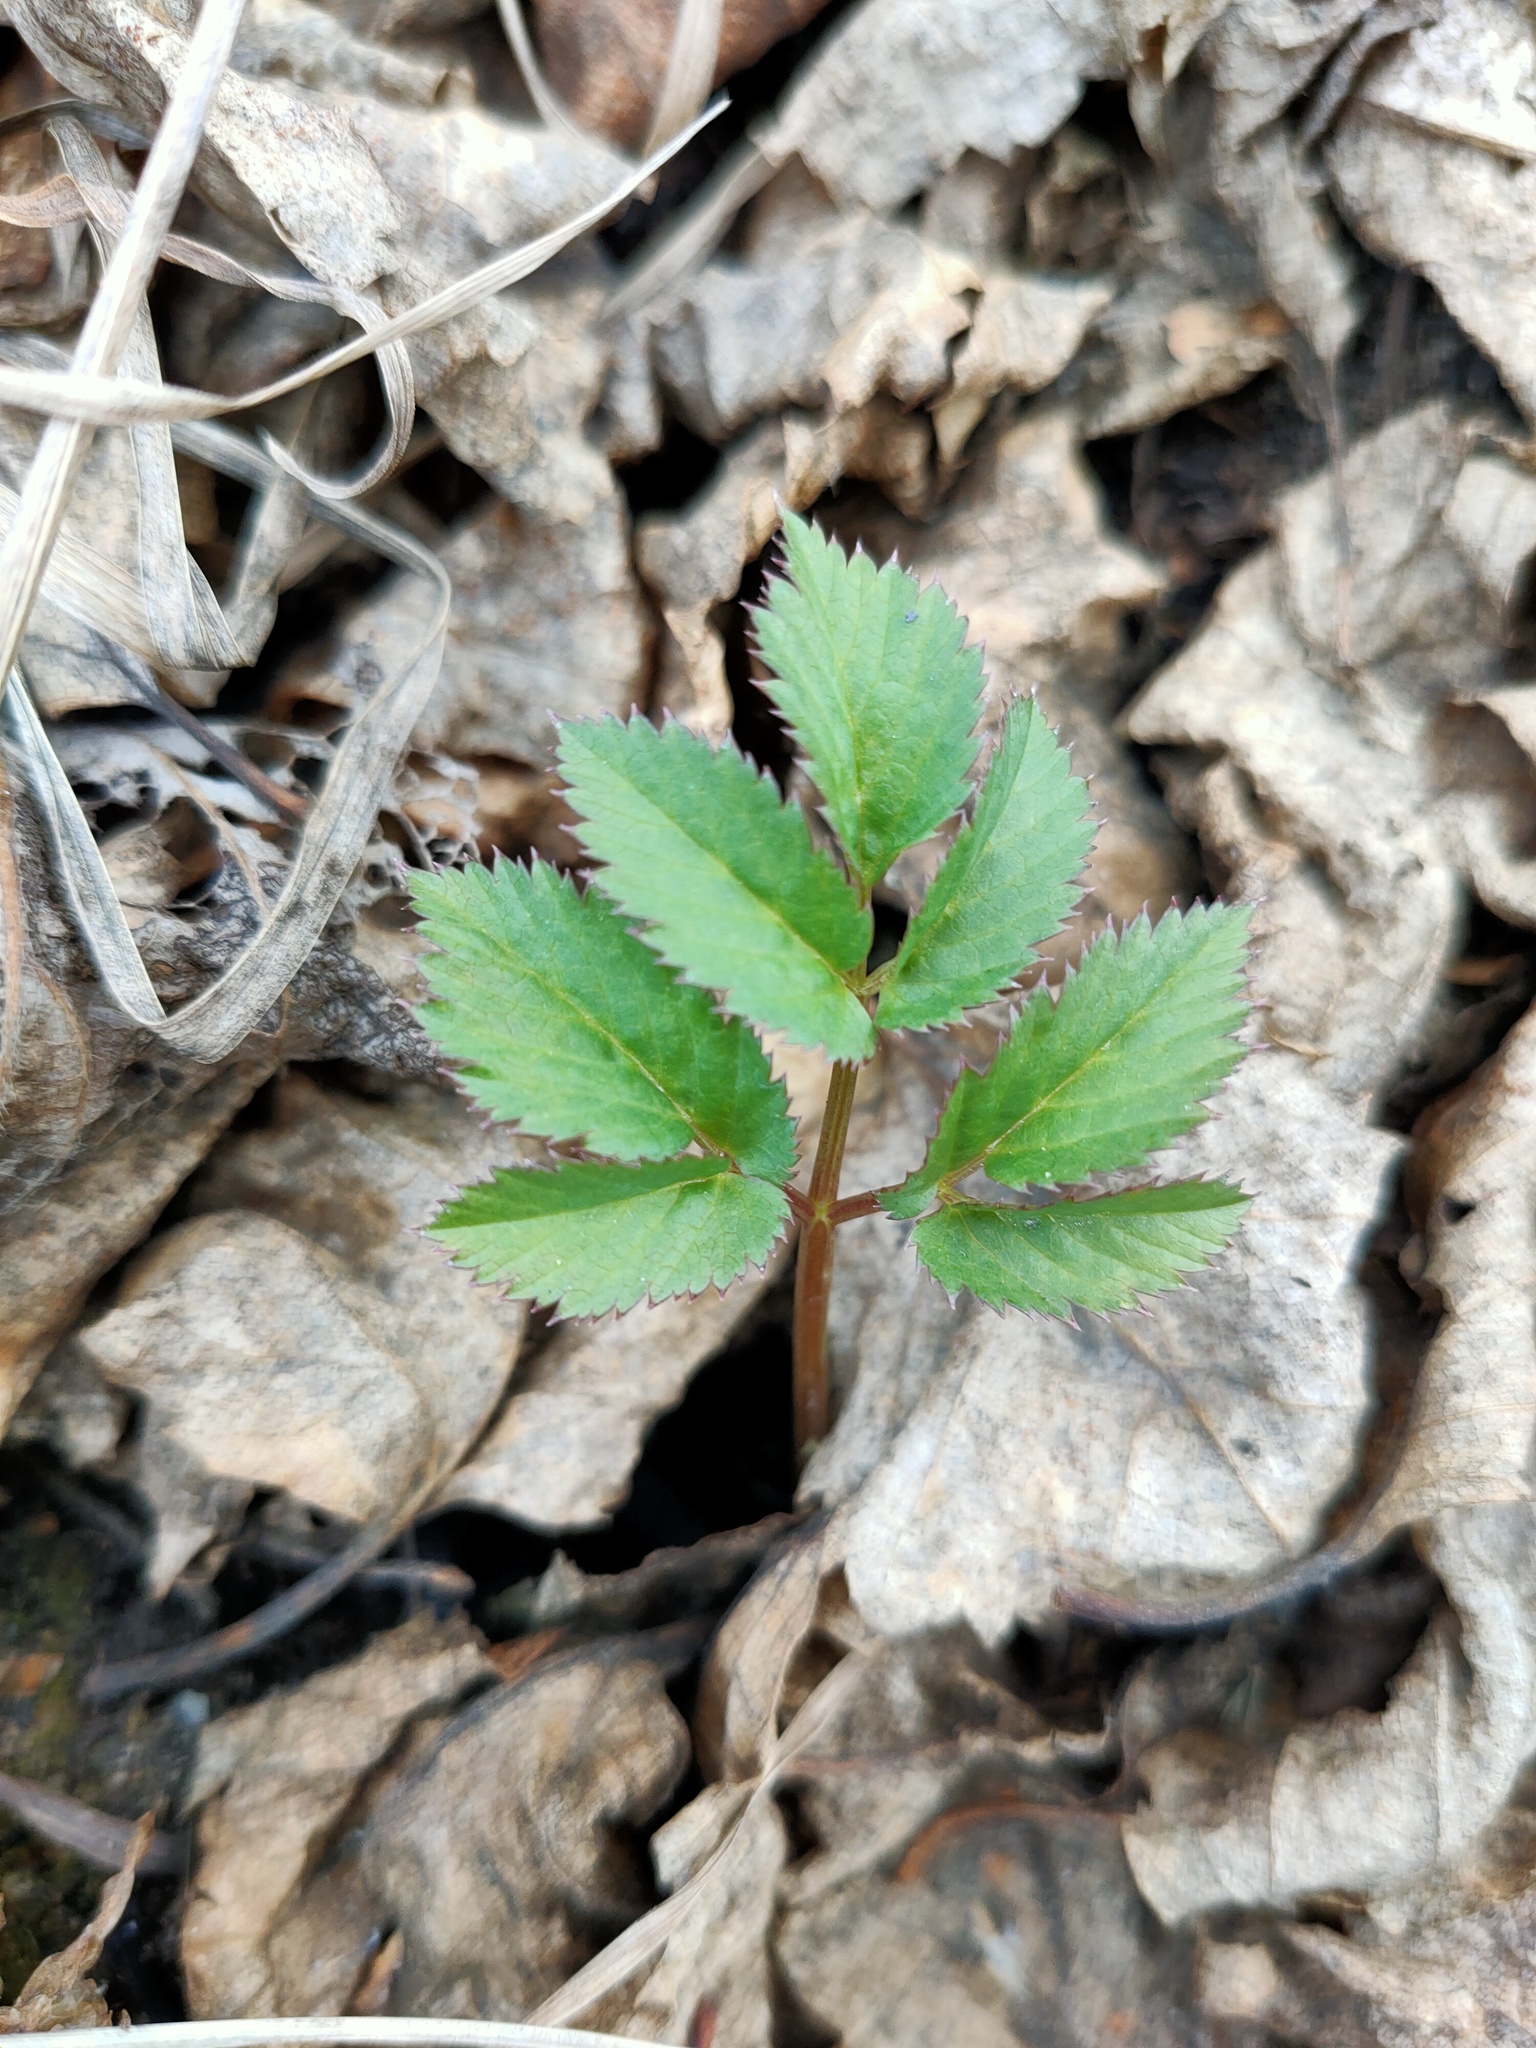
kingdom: Plantae
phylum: Tracheophyta
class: Magnoliopsida
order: Apiales
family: Apiaceae
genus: Aegopodium
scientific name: Aegopodium podagraria
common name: Ground-elder
